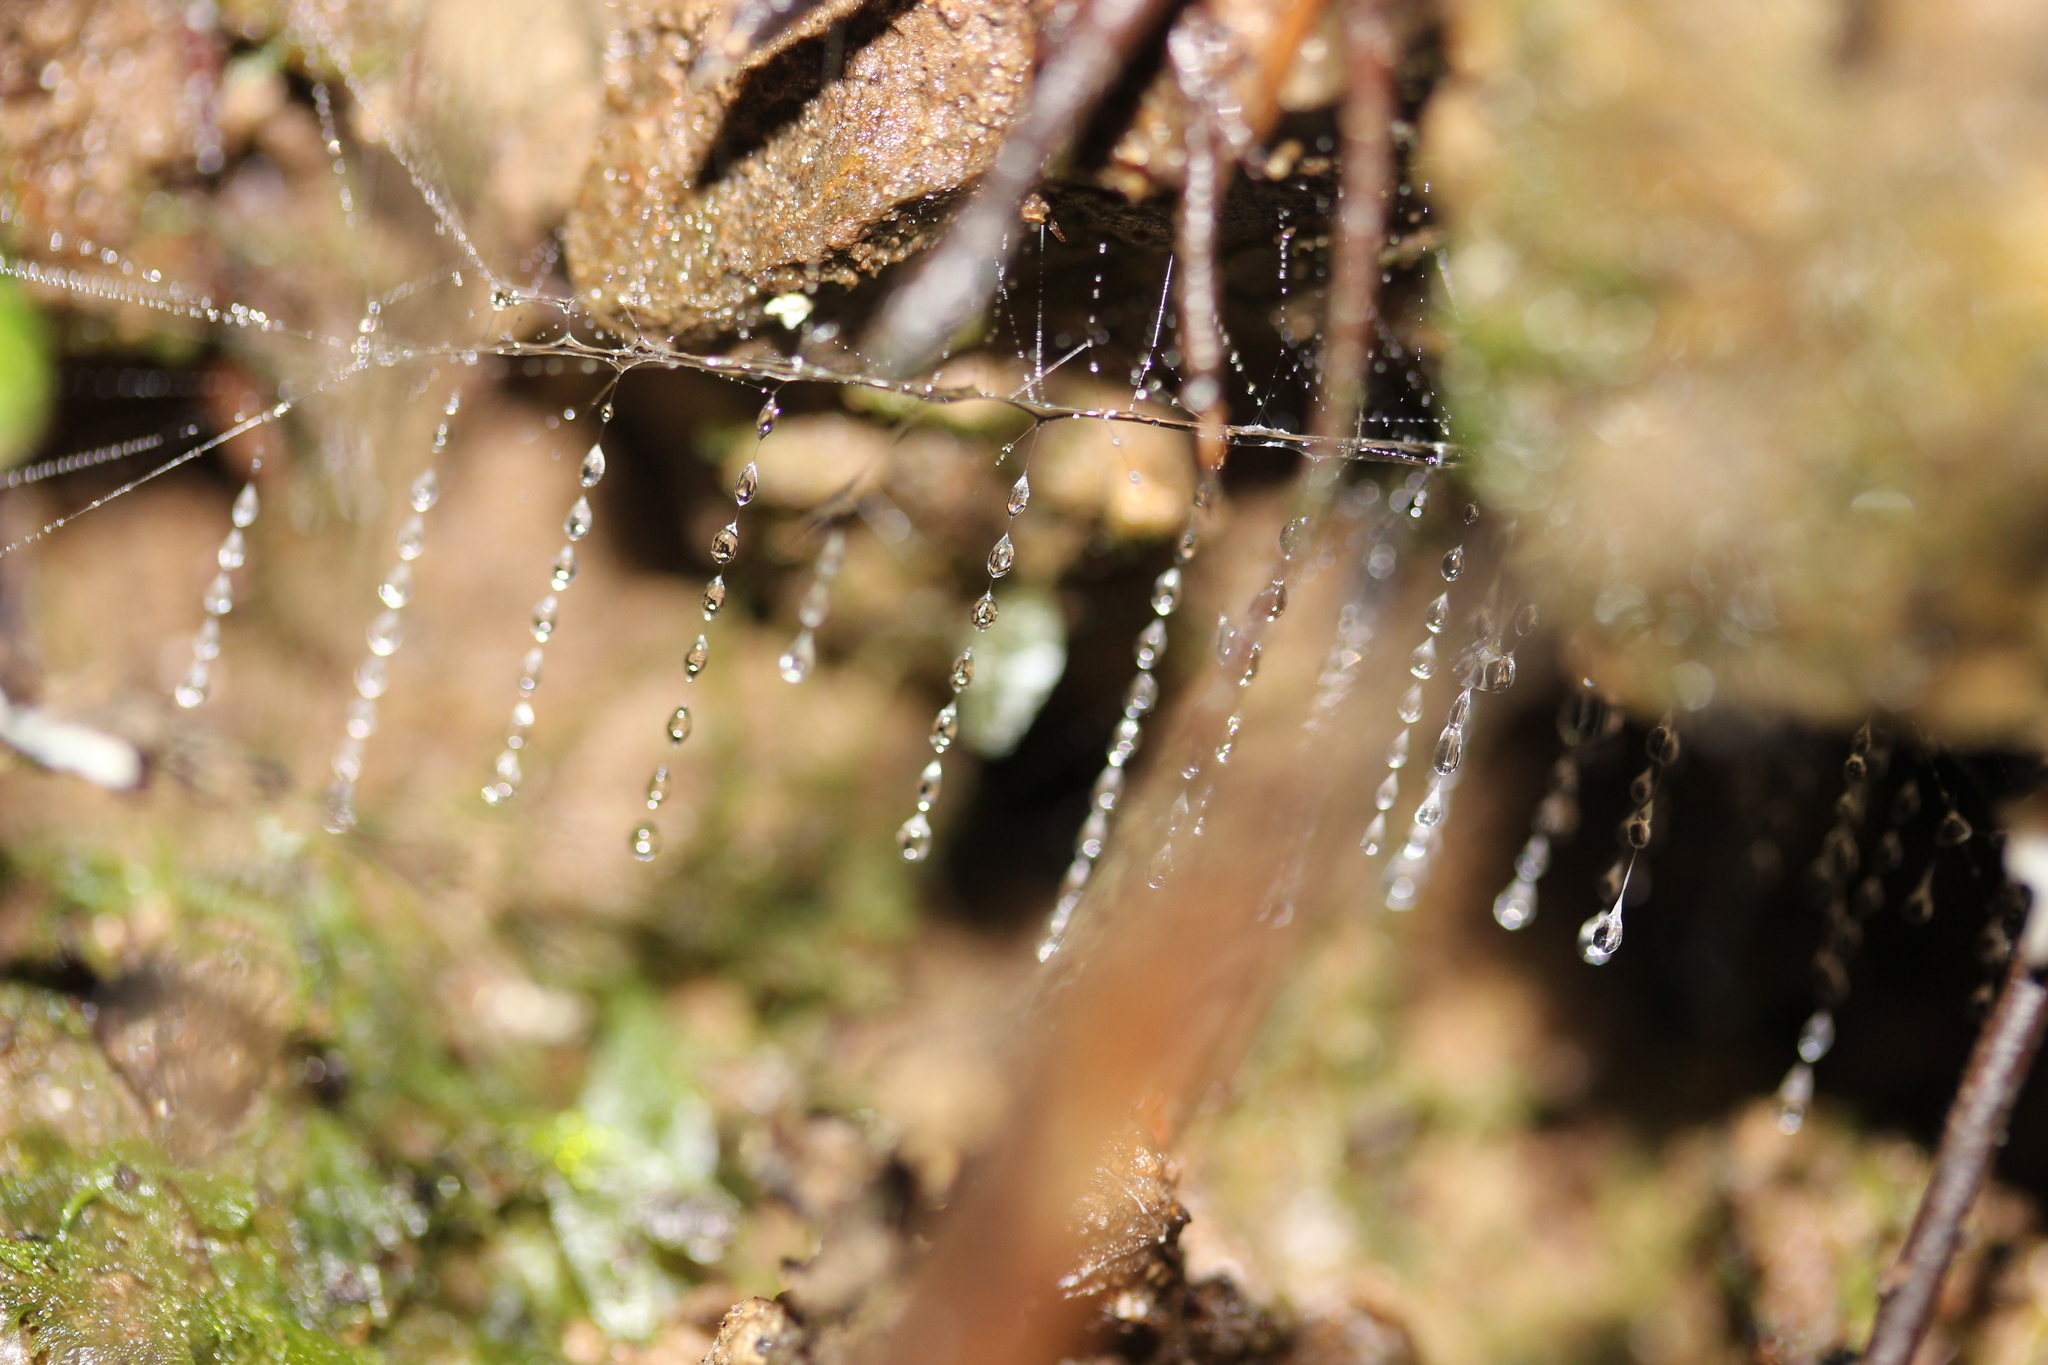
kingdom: Animalia
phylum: Arthropoda
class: Insecta
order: Diptera
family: Keroplatidae
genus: Arachnocampa
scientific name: Arachnocampa luminosa
